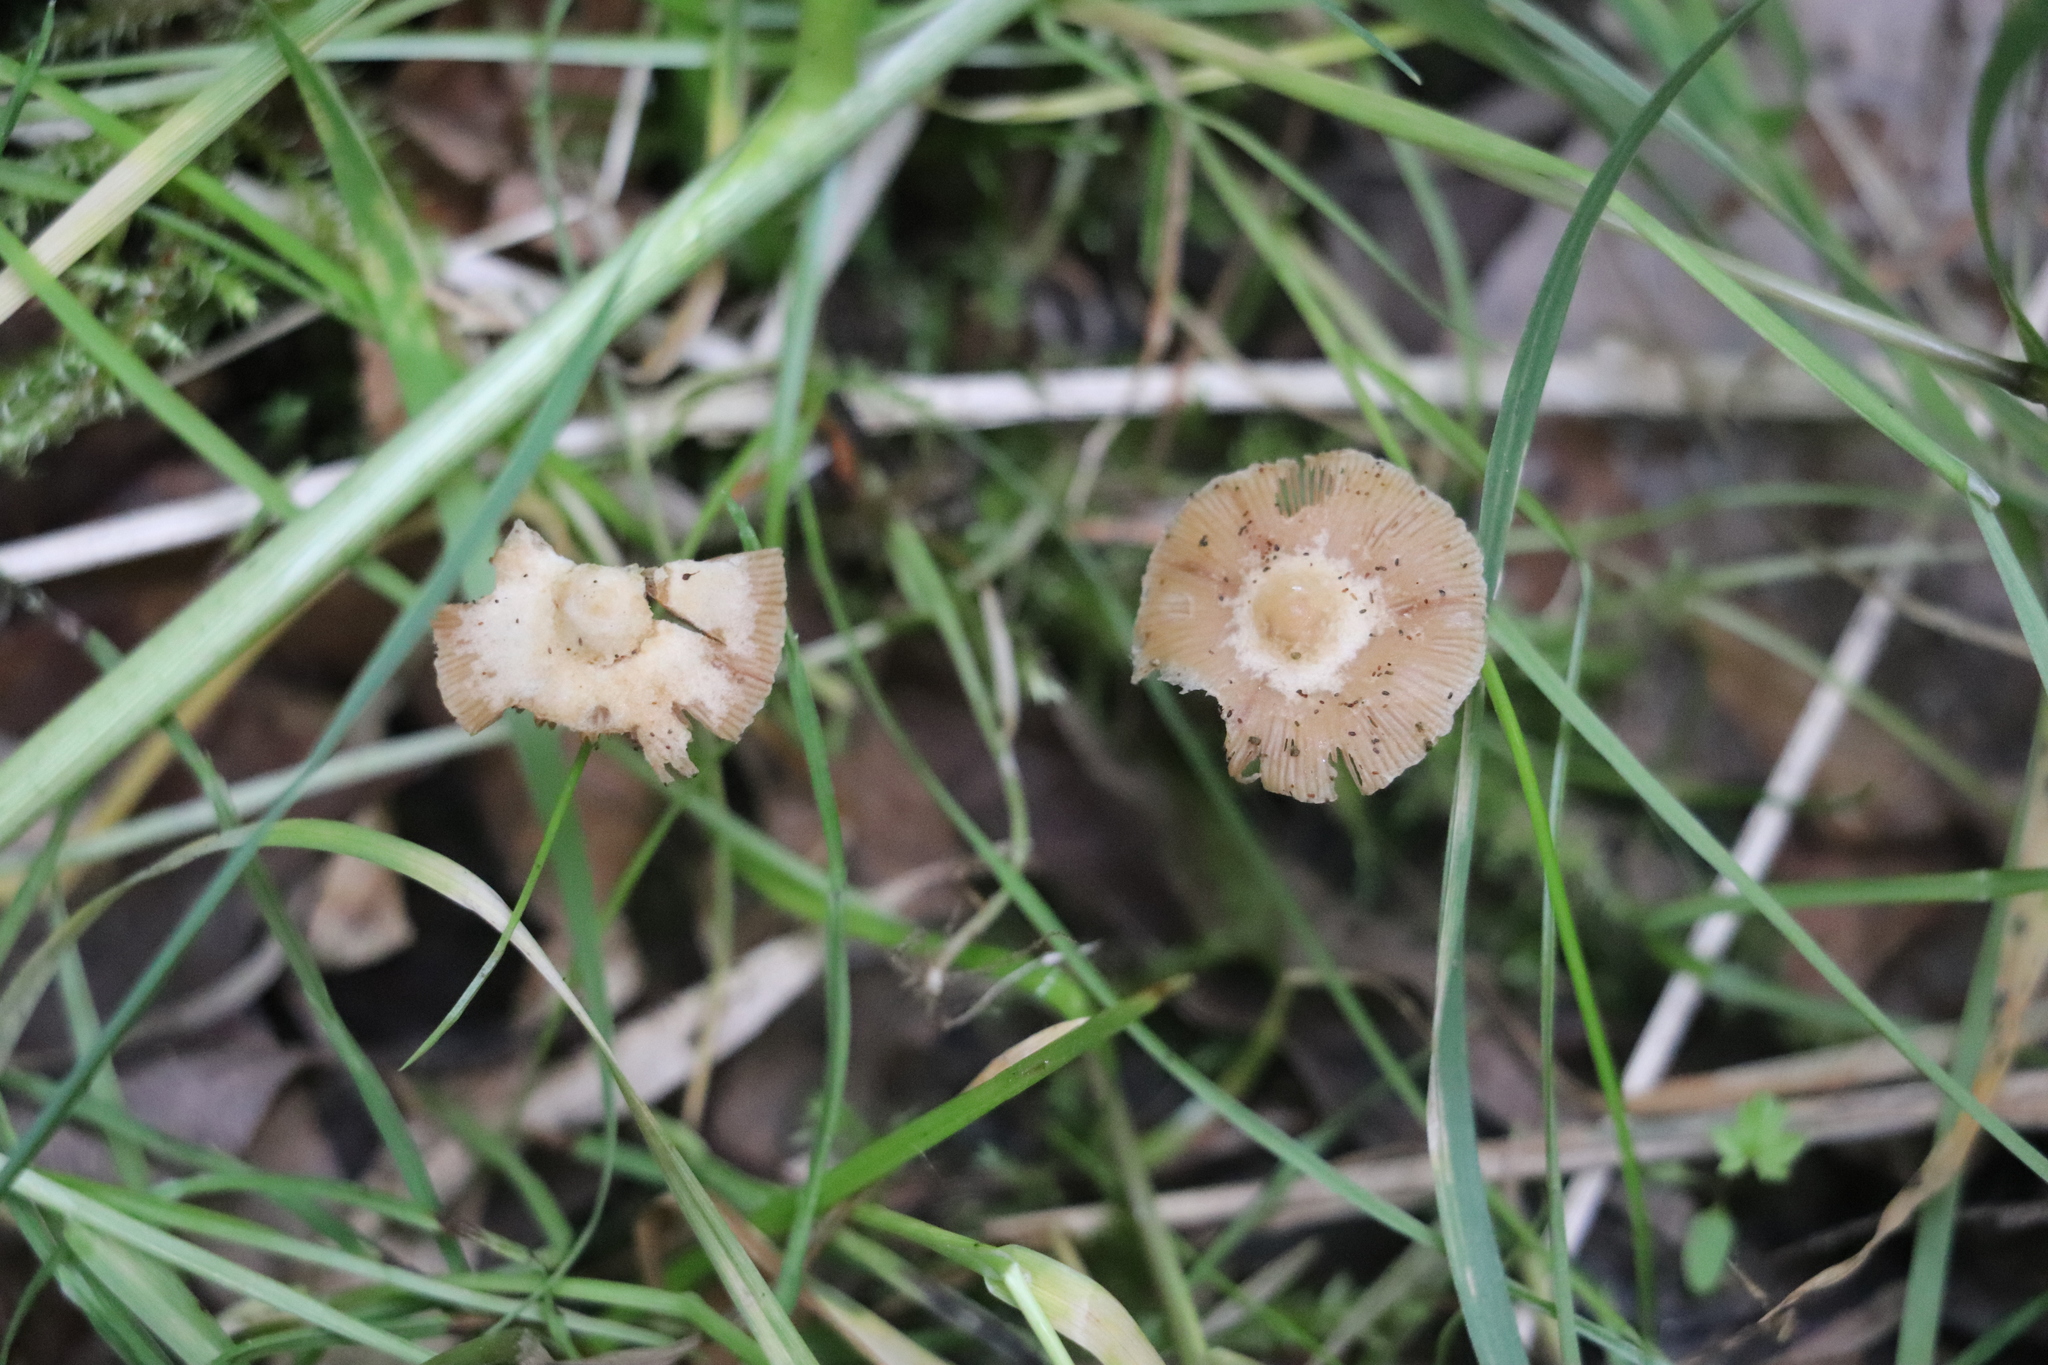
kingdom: Fungi
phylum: Basidiomycota
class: Agaricomycetes
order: Agaricales
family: Strophariaceae
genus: Pholiota
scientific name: Pholiota lignicola
